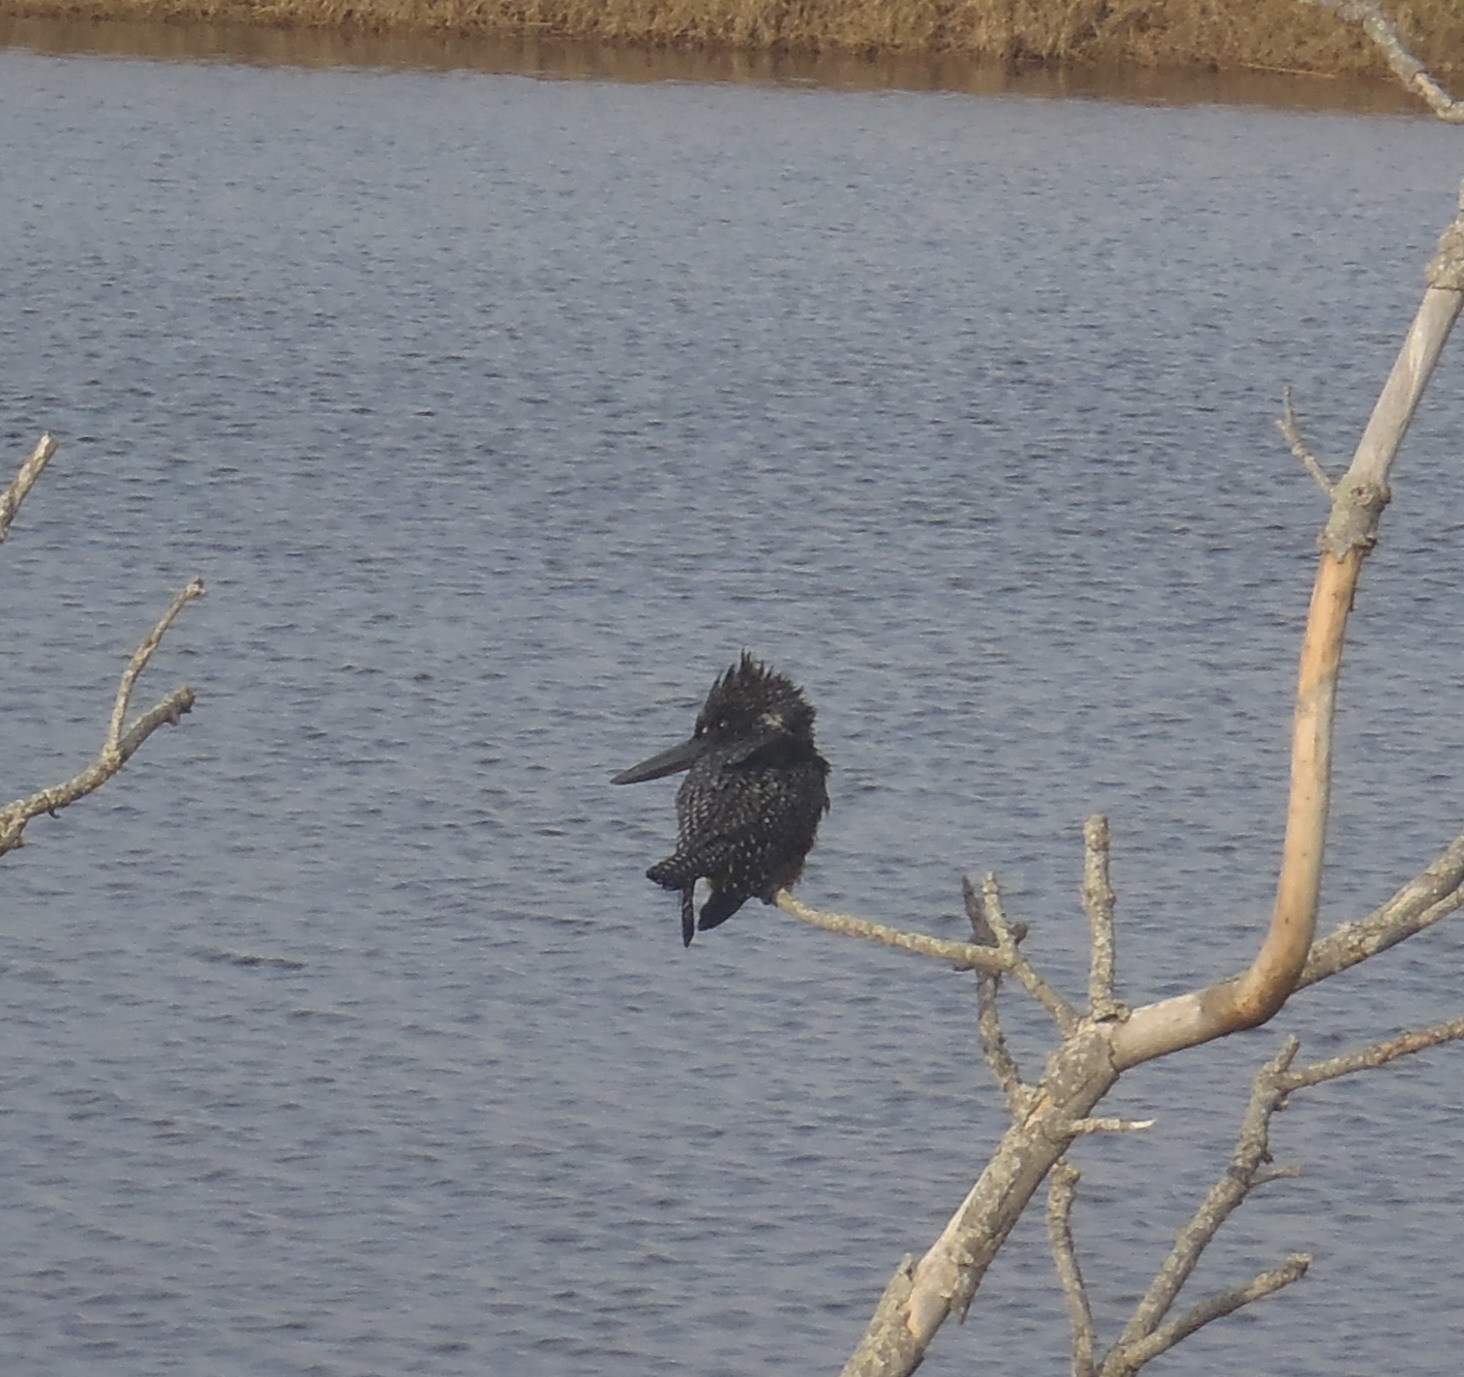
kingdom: Animalia
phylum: Chordata
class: Aves
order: Coraciiformes
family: Alcedinidae
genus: Megaceryle
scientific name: Megaceryle maxima
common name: Giant kingfisher
